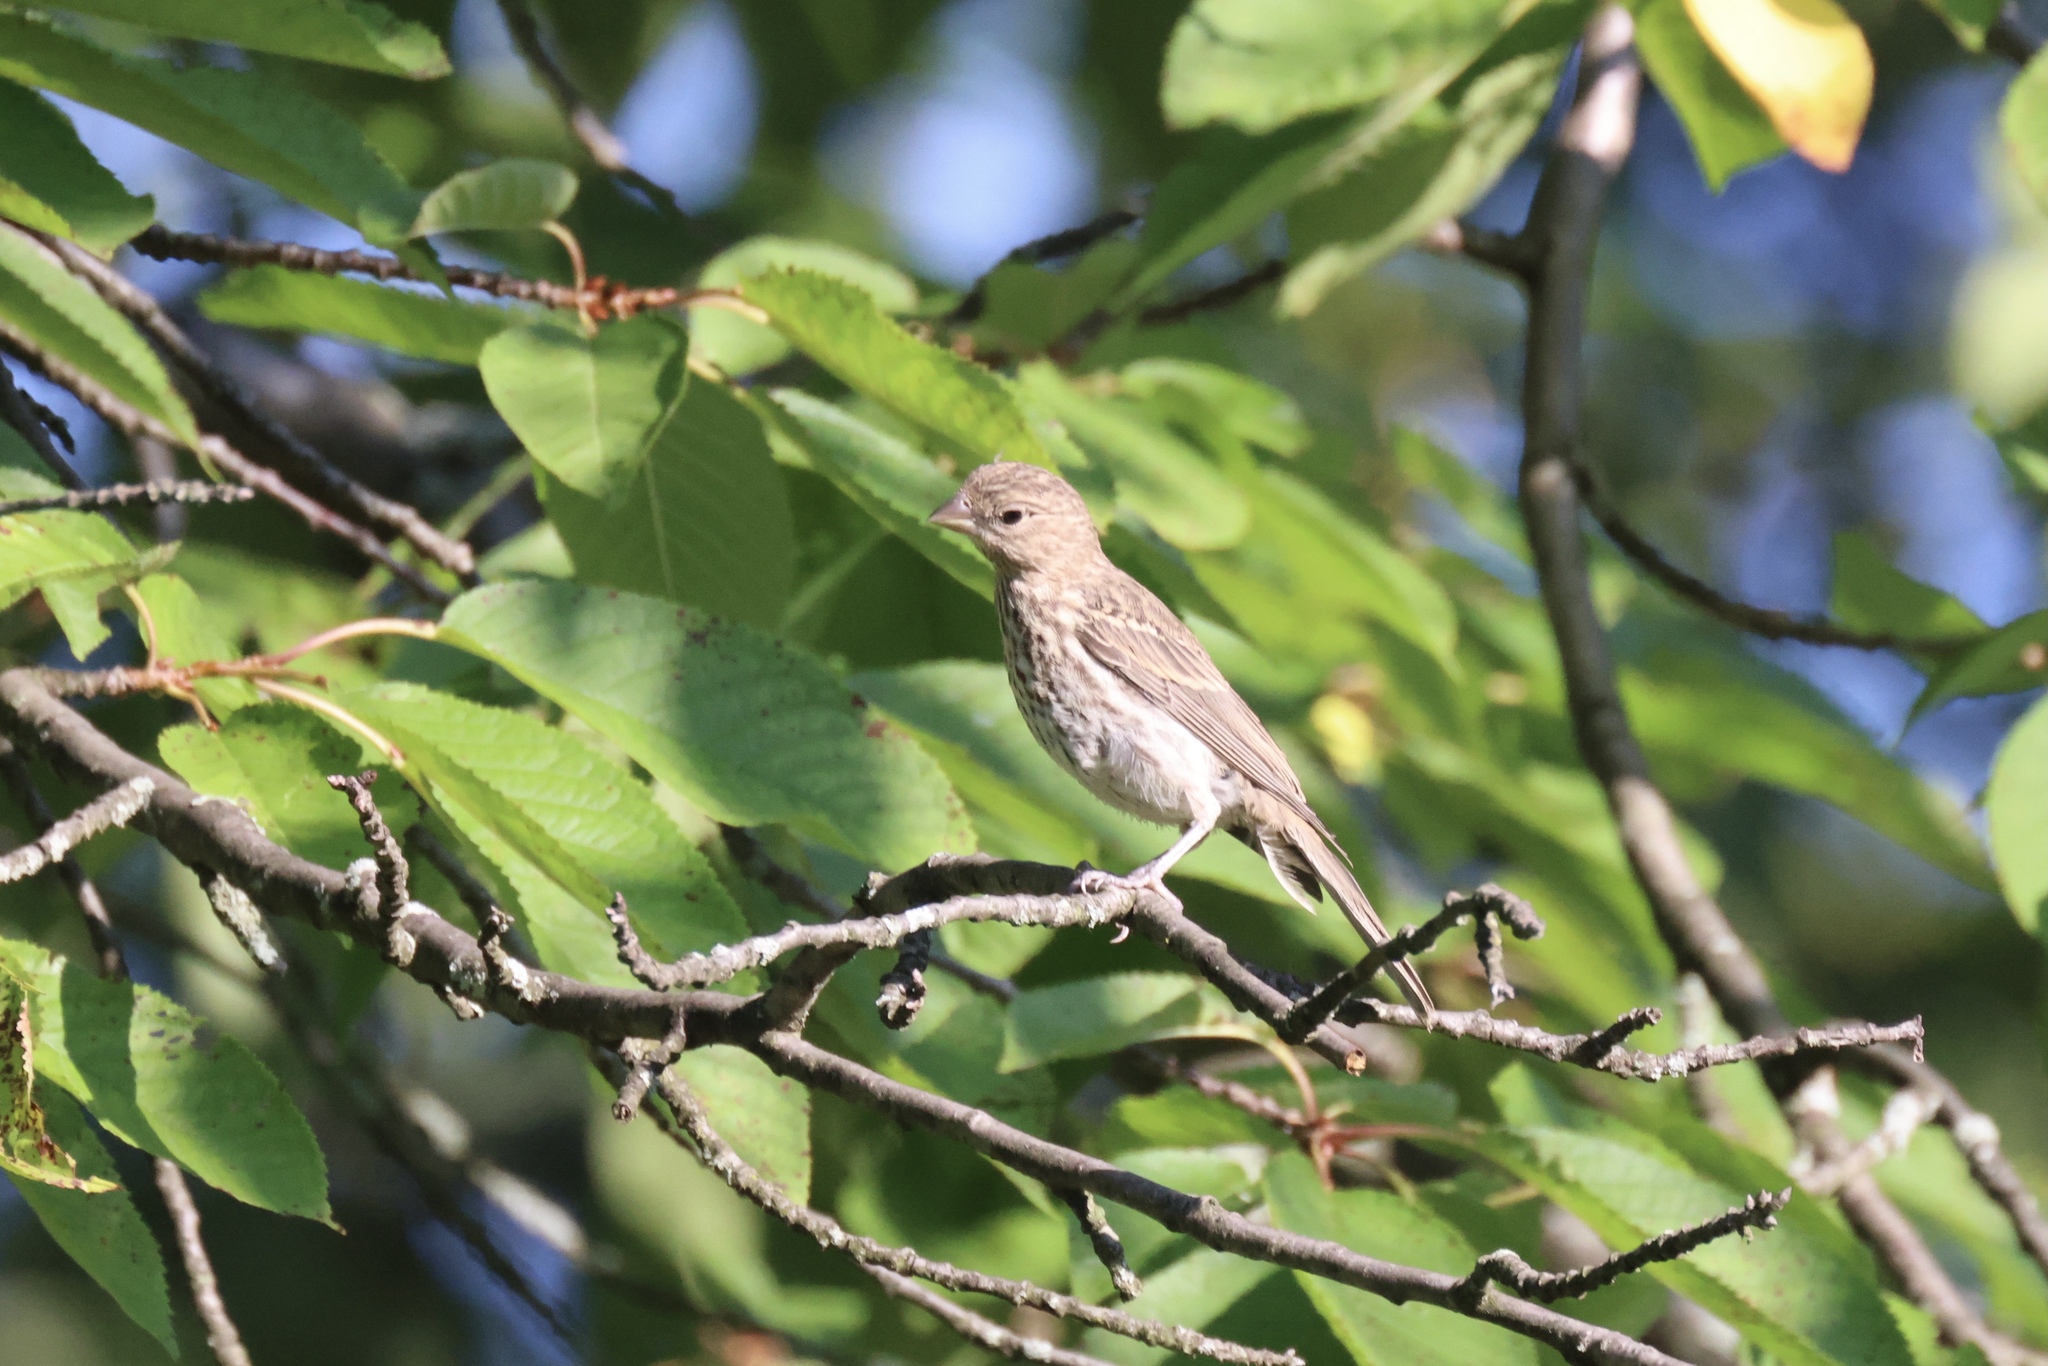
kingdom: Animalia
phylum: Chordata
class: Aves
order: Passeriformes
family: Fringillidae
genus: Haemorhous
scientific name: Haemorhous mexicanus
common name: House finch
